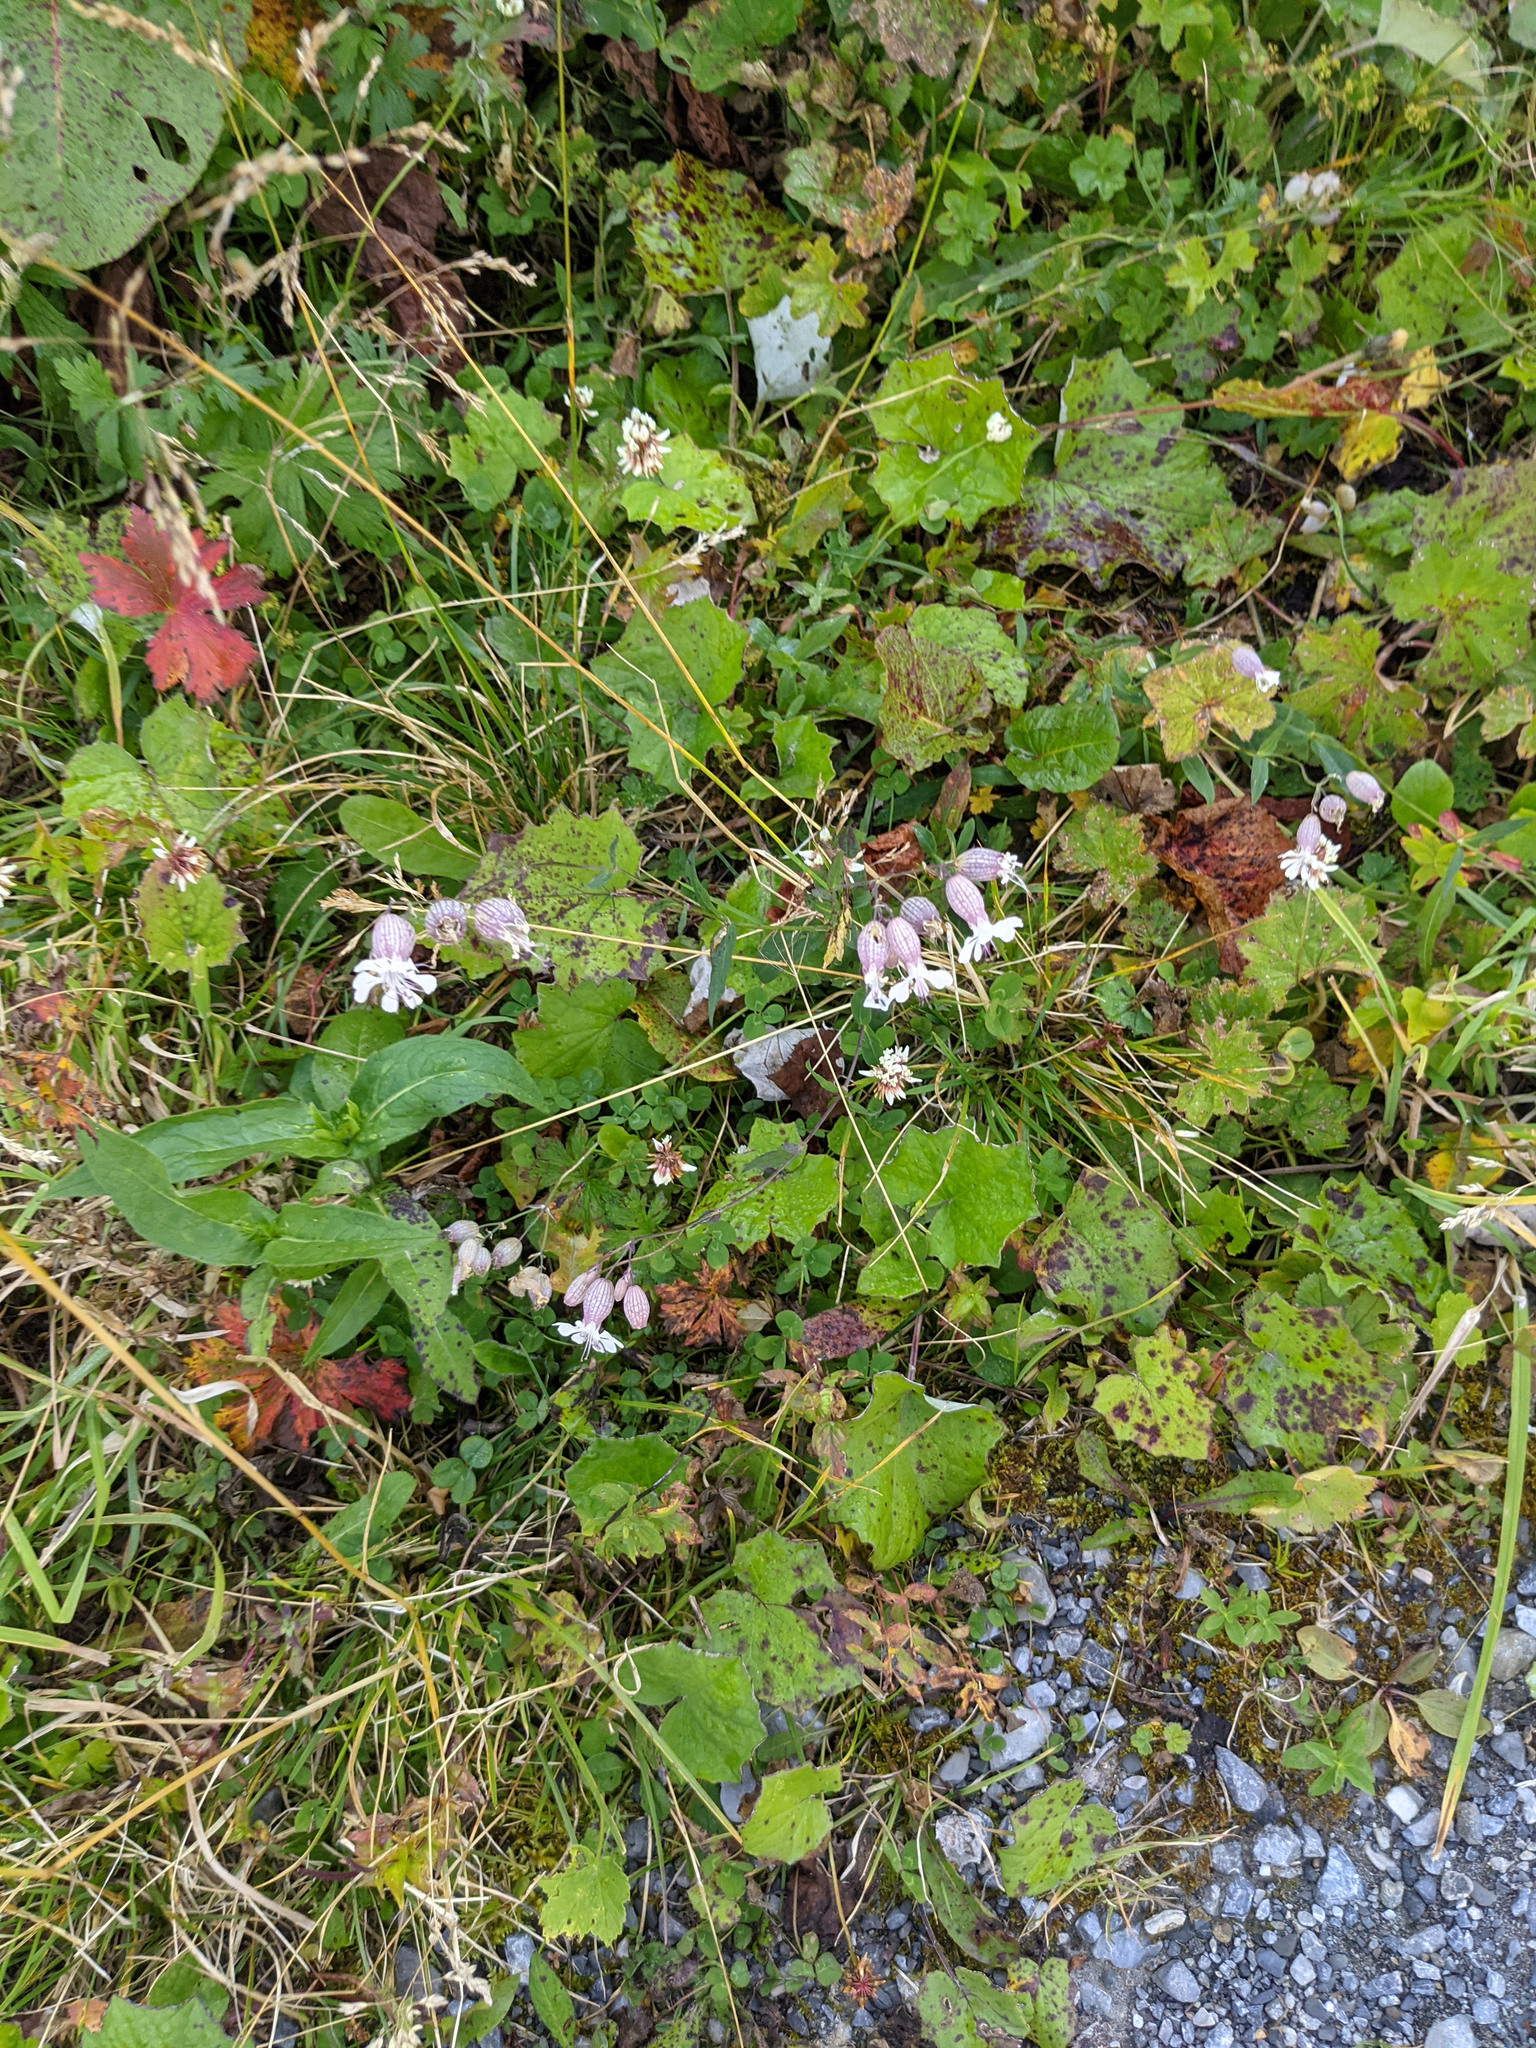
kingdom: Plantae
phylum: Tracheophyta
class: Magnoliopsida
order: Caryophyllales
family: Caryophyllaceae
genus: Silene
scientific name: Silene vulgaris
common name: Bladder campion
